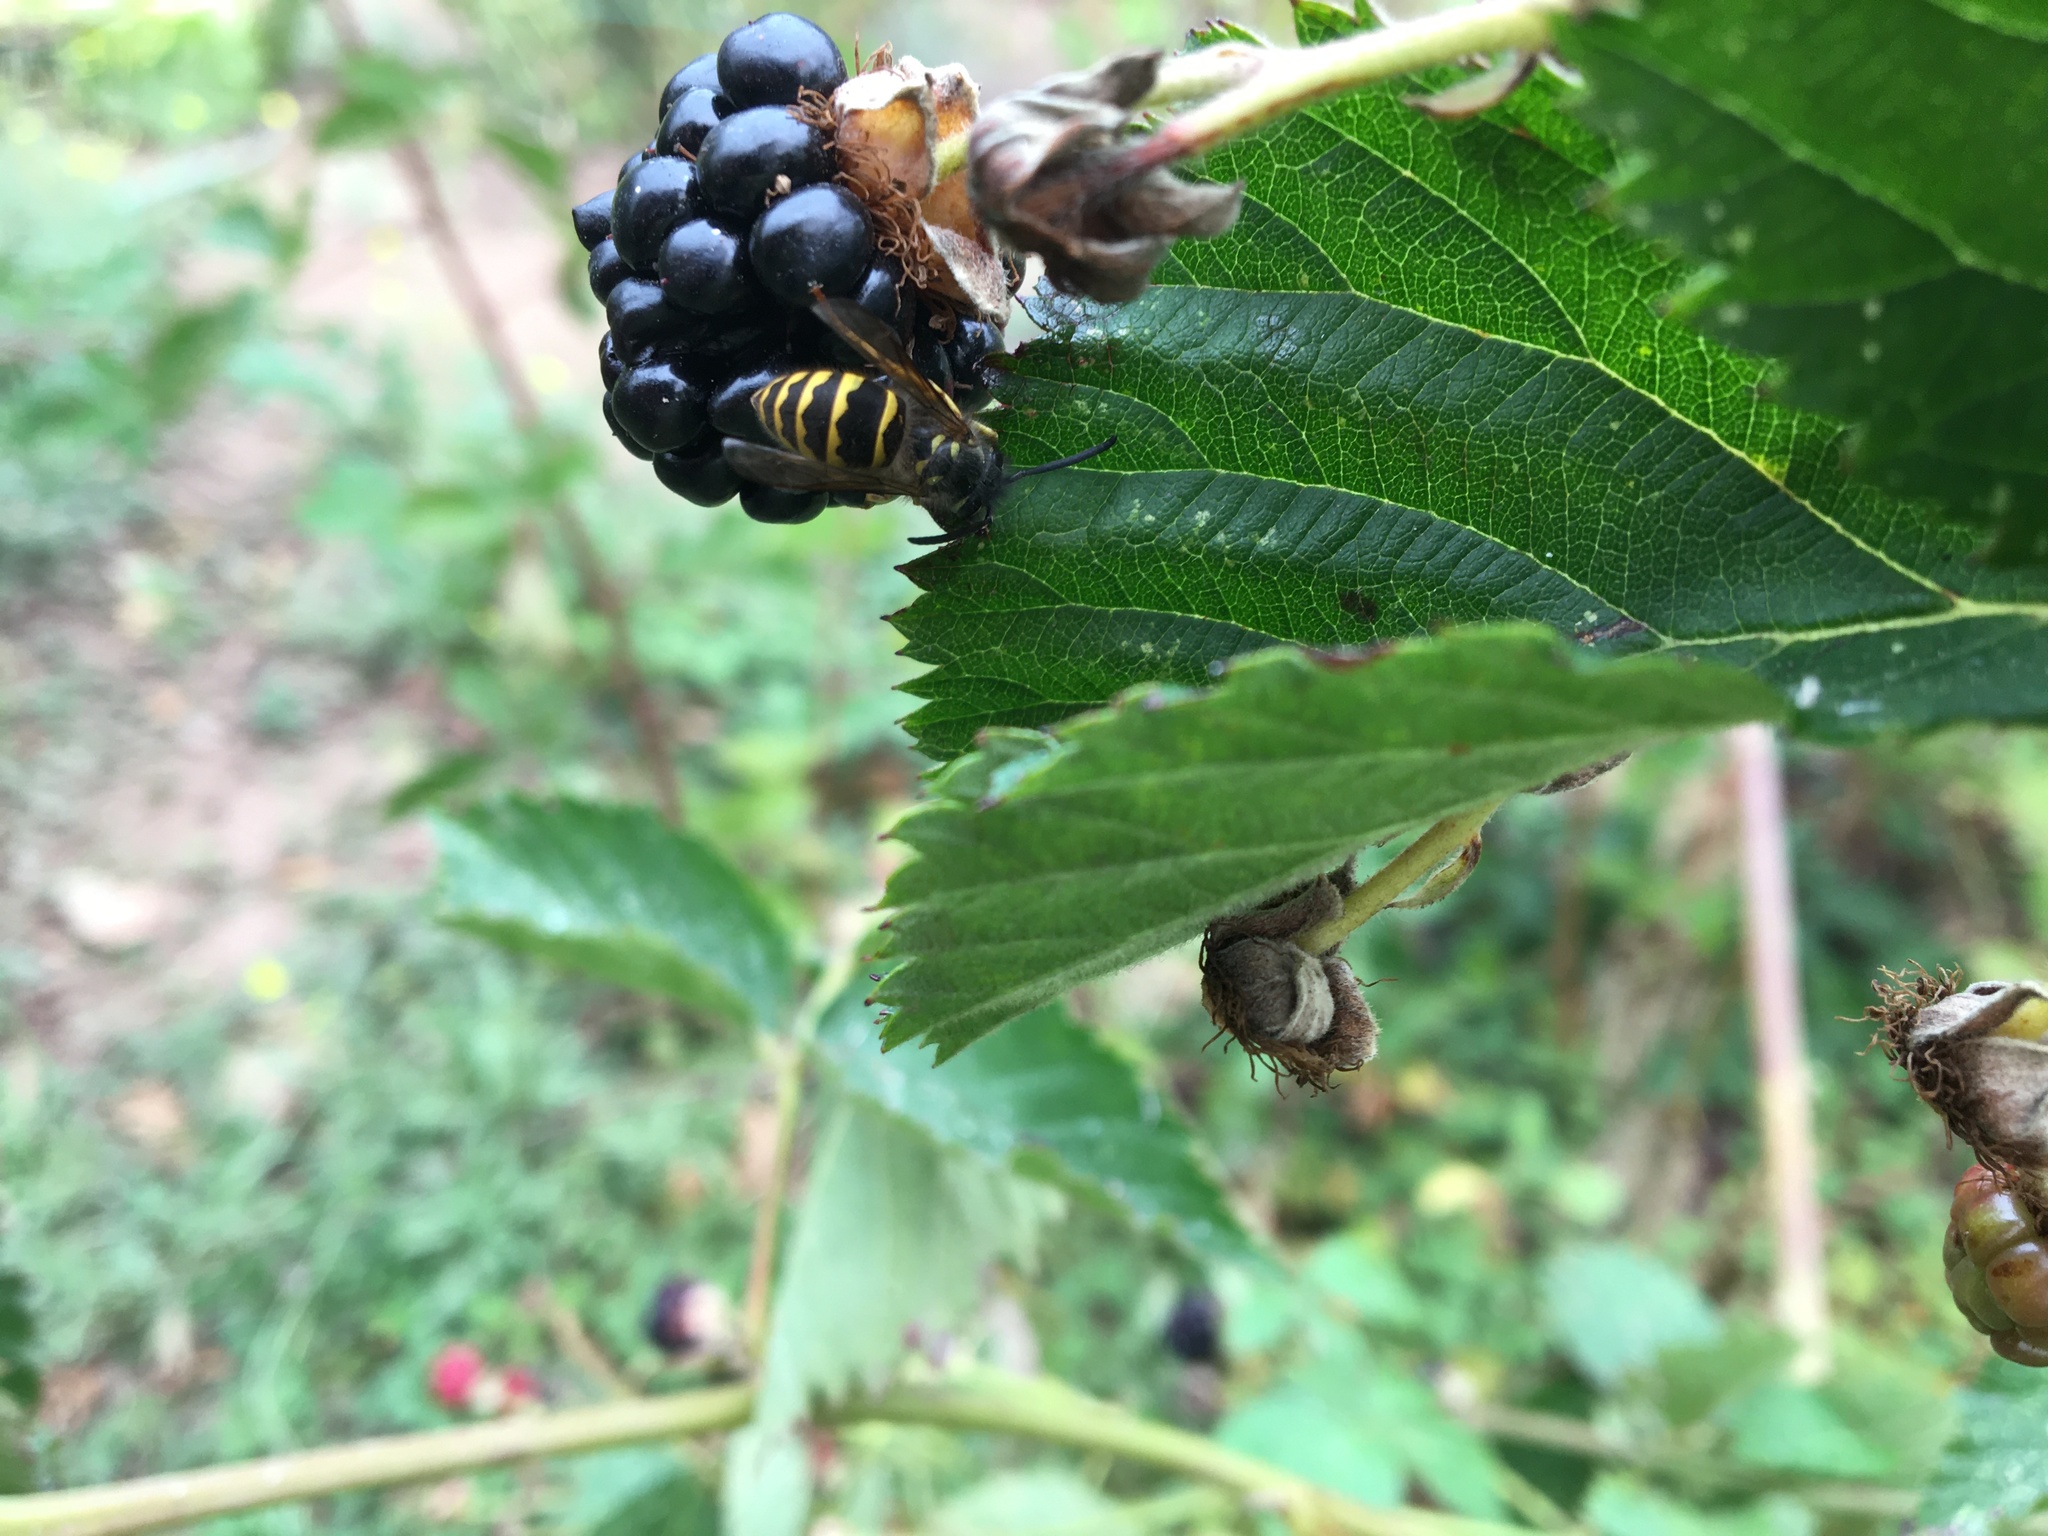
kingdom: Animalia
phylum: Arthropoda
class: Insecta
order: Hymenoptera
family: Vespidae
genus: Vespula
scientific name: Vespula alascensis
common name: Alaska yellowjacket
